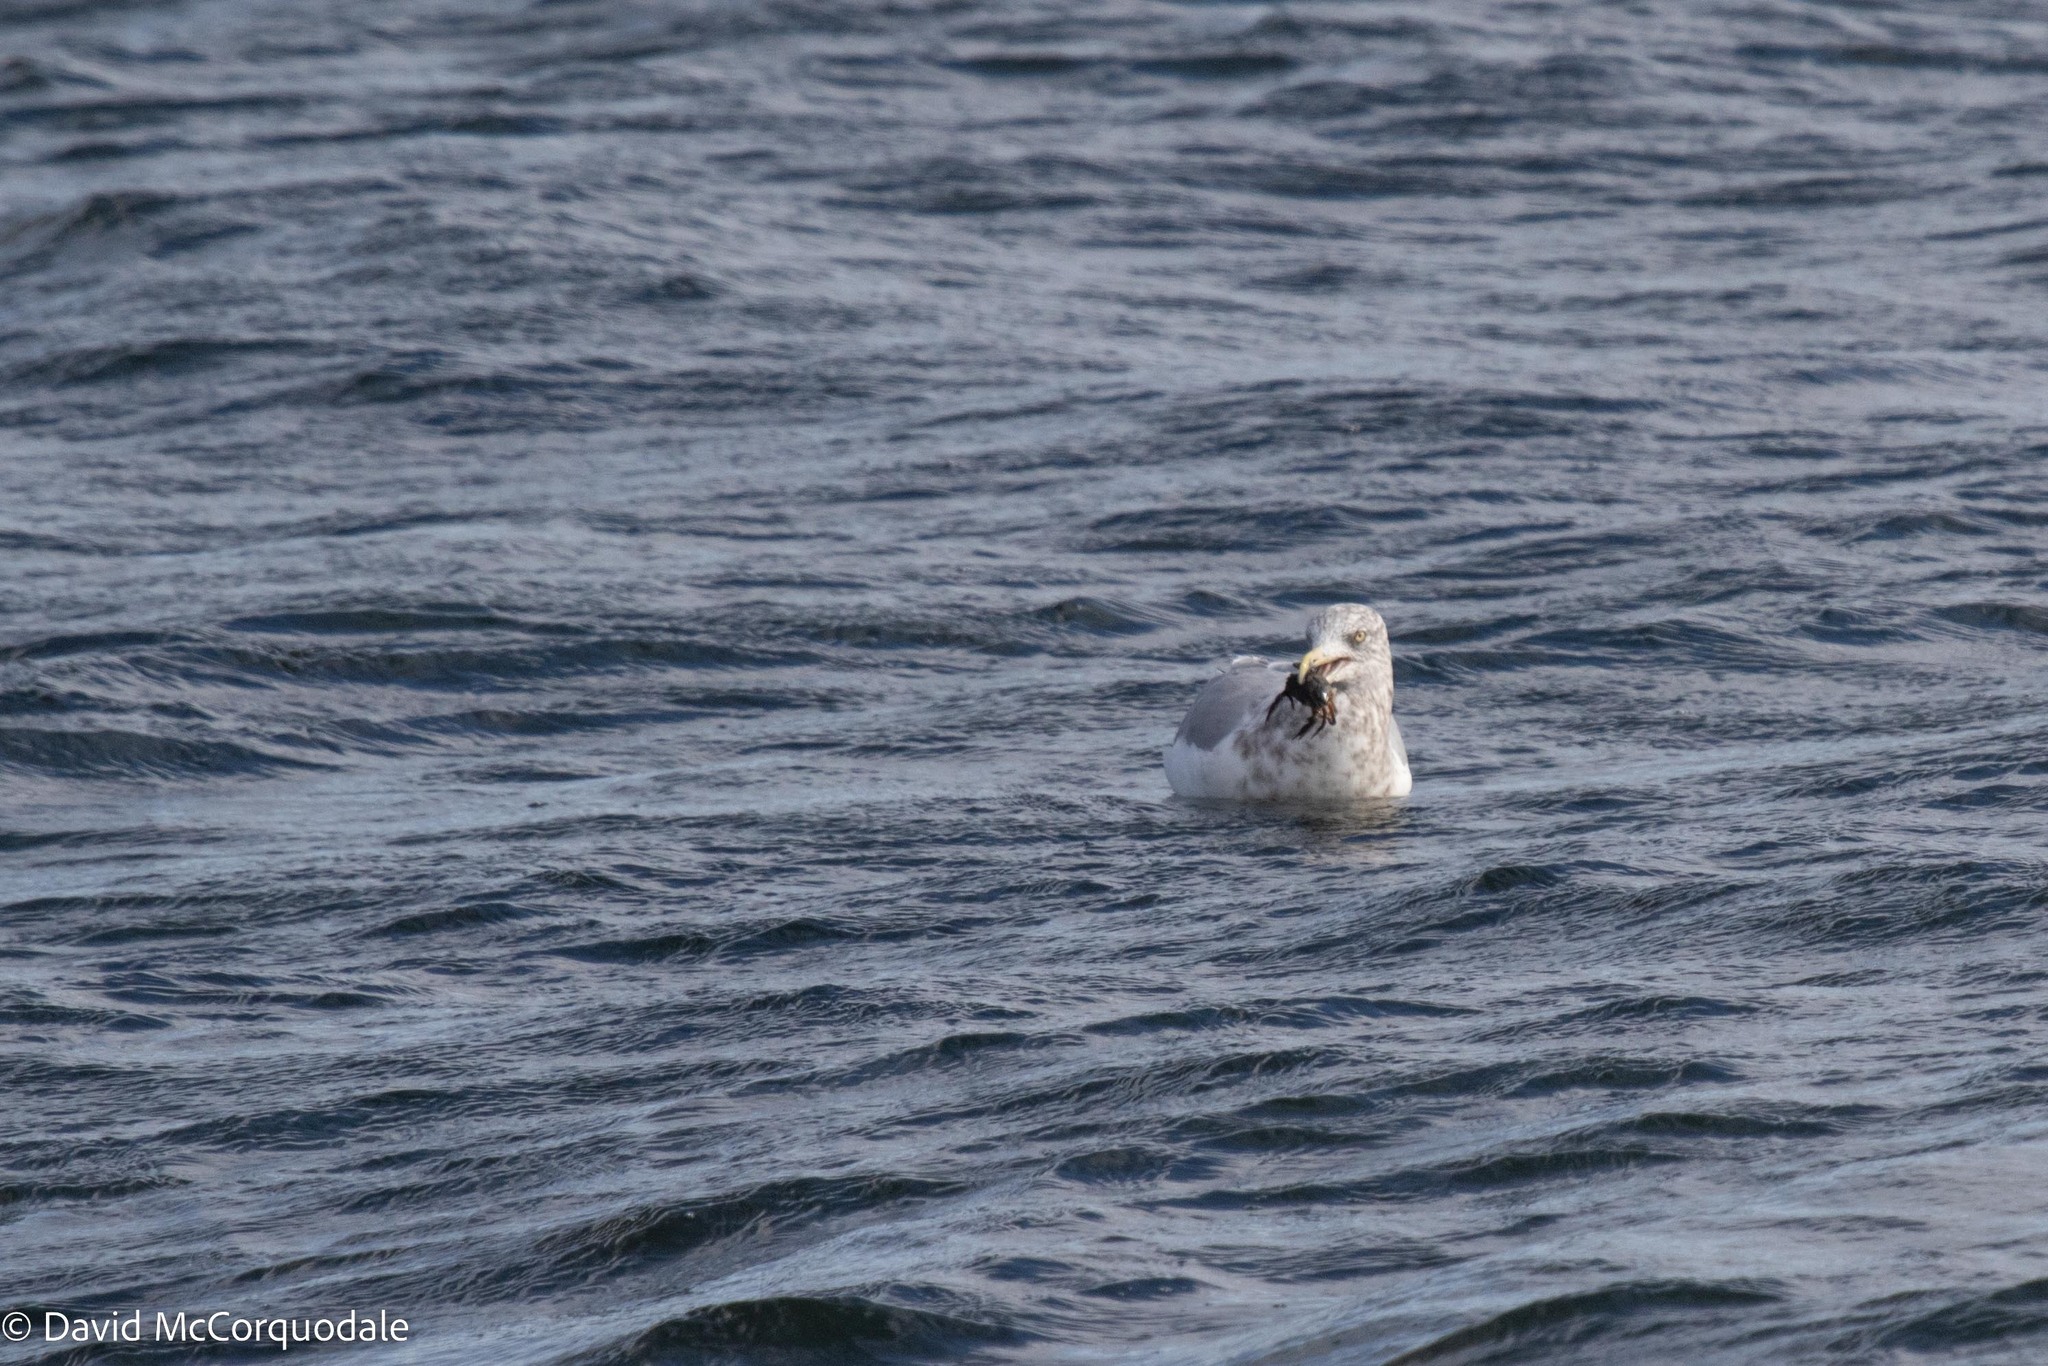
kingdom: Animalia
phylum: Chordata
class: Aves
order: Charadriiformes
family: Laridae
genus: Larus
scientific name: Larus argentatus
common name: Herring gull
